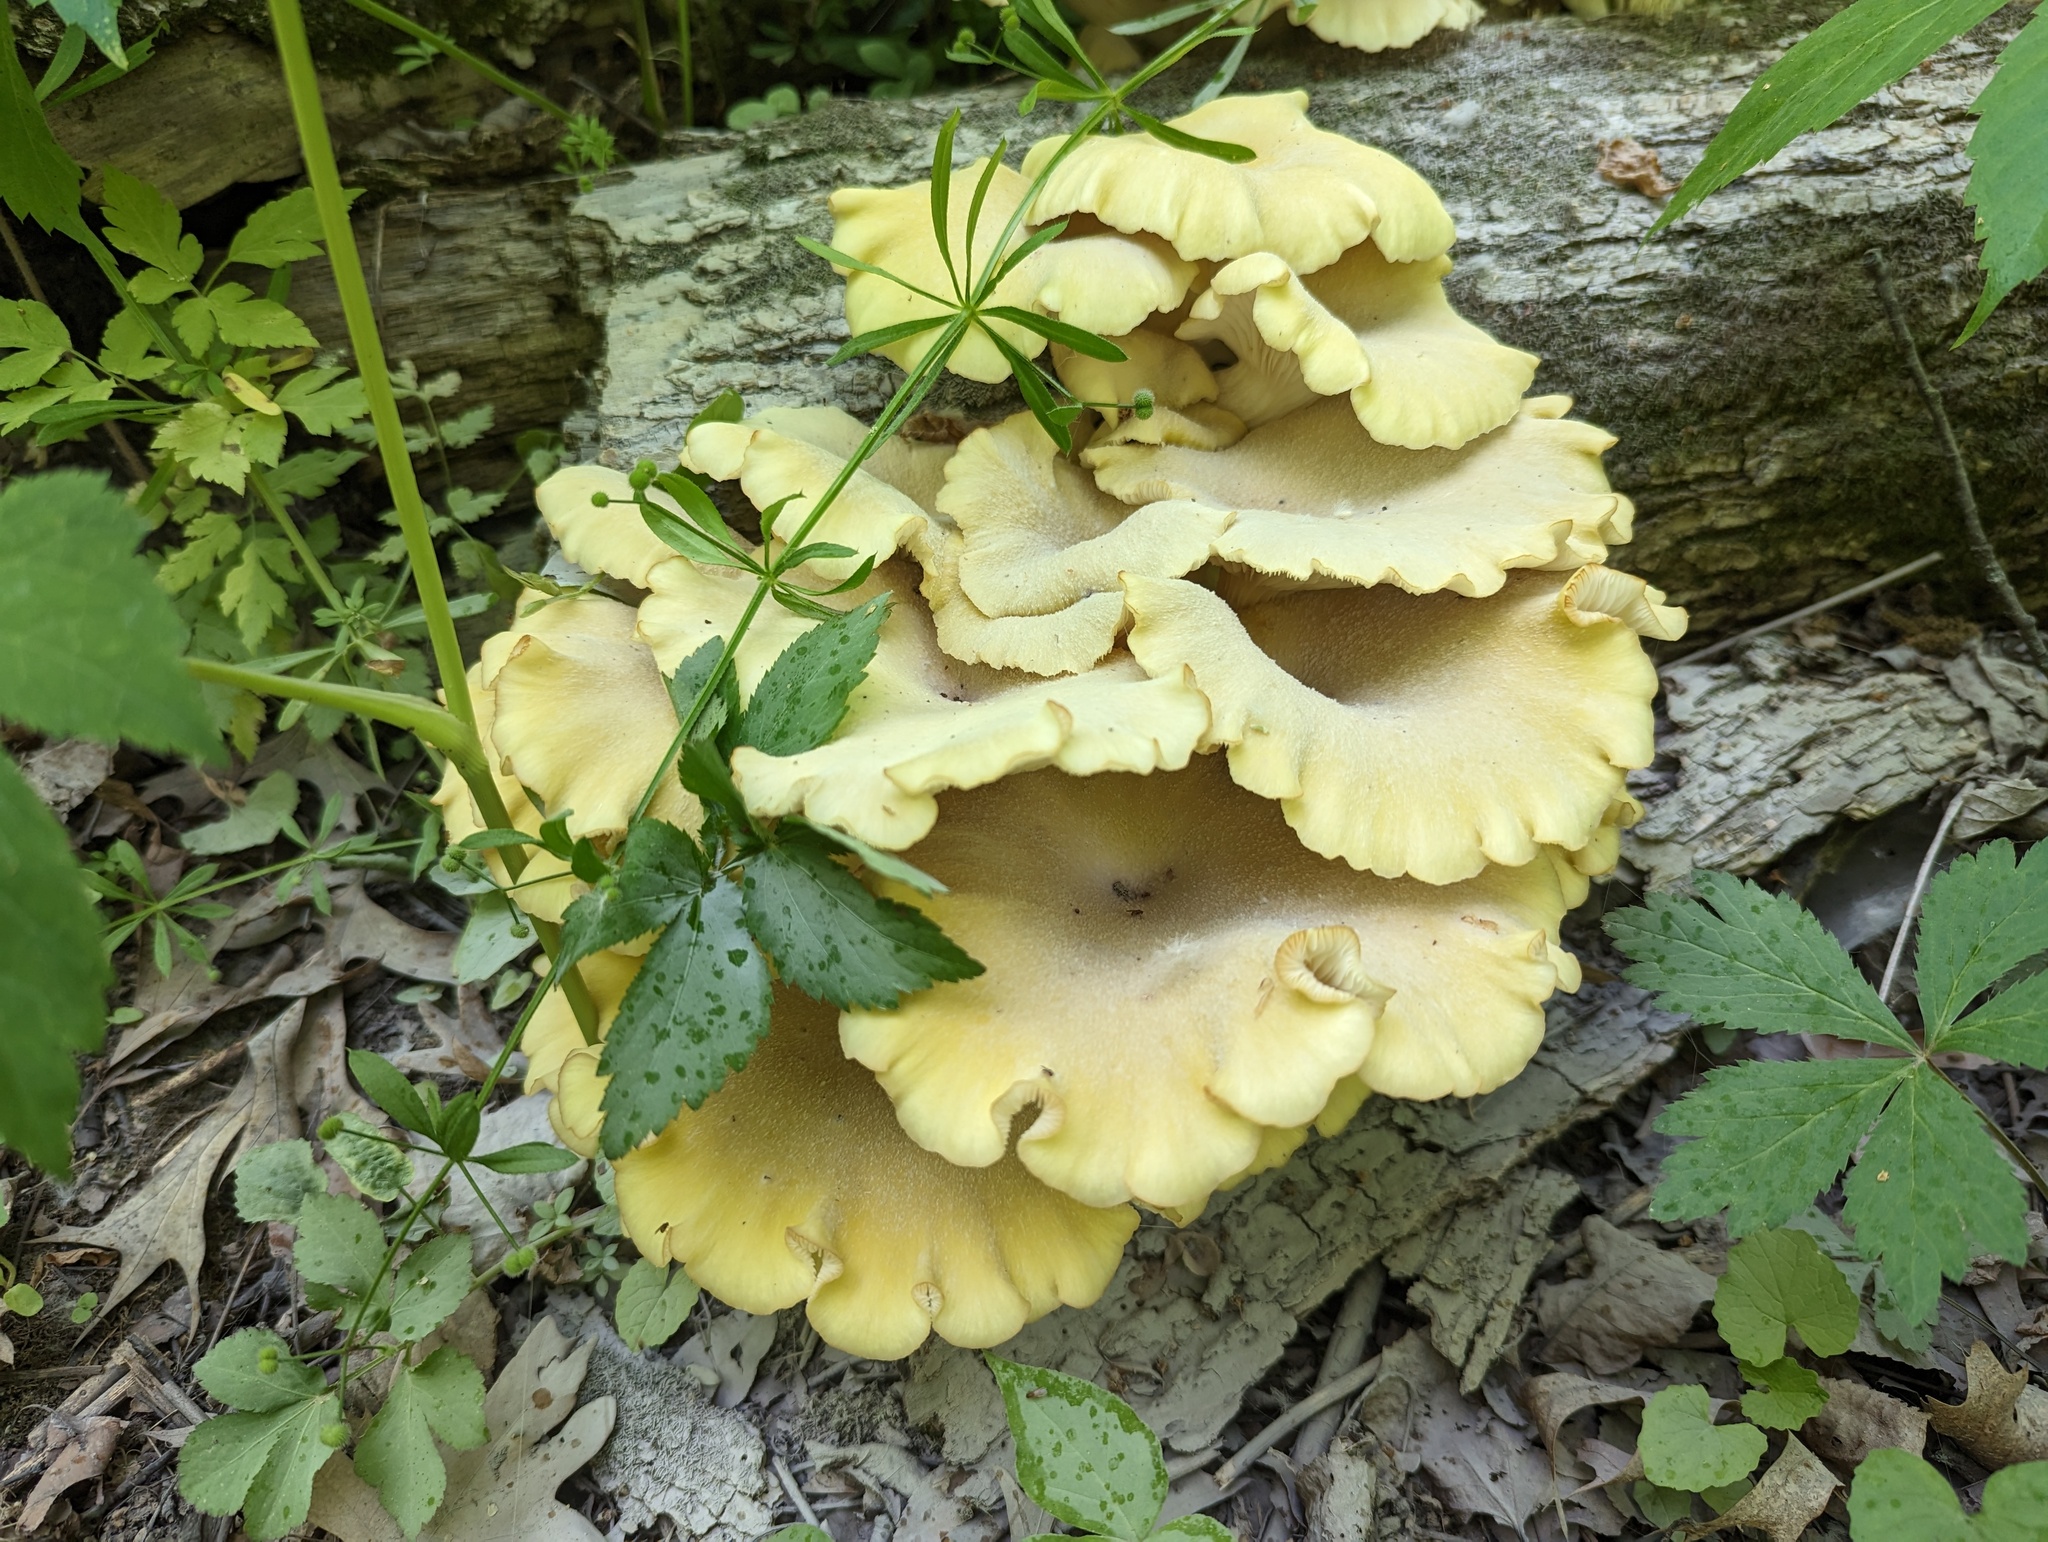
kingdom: Fungi
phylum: Basidiomycota
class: Agaricomycetes
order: Agaricales
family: Pleurotaceae
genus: Pleurotus
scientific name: Pleurotus citrinopileatus
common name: Golden oyster mushroom
